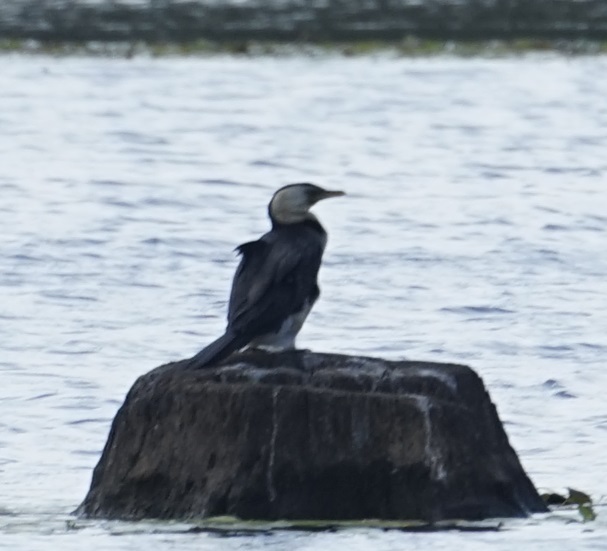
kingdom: Animalia
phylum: Chordata
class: Aves
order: Suliformes
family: Phalacrocoracidae
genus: Microcarbo
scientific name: Microcarbo melanoleucos
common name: Little pied cormorant
